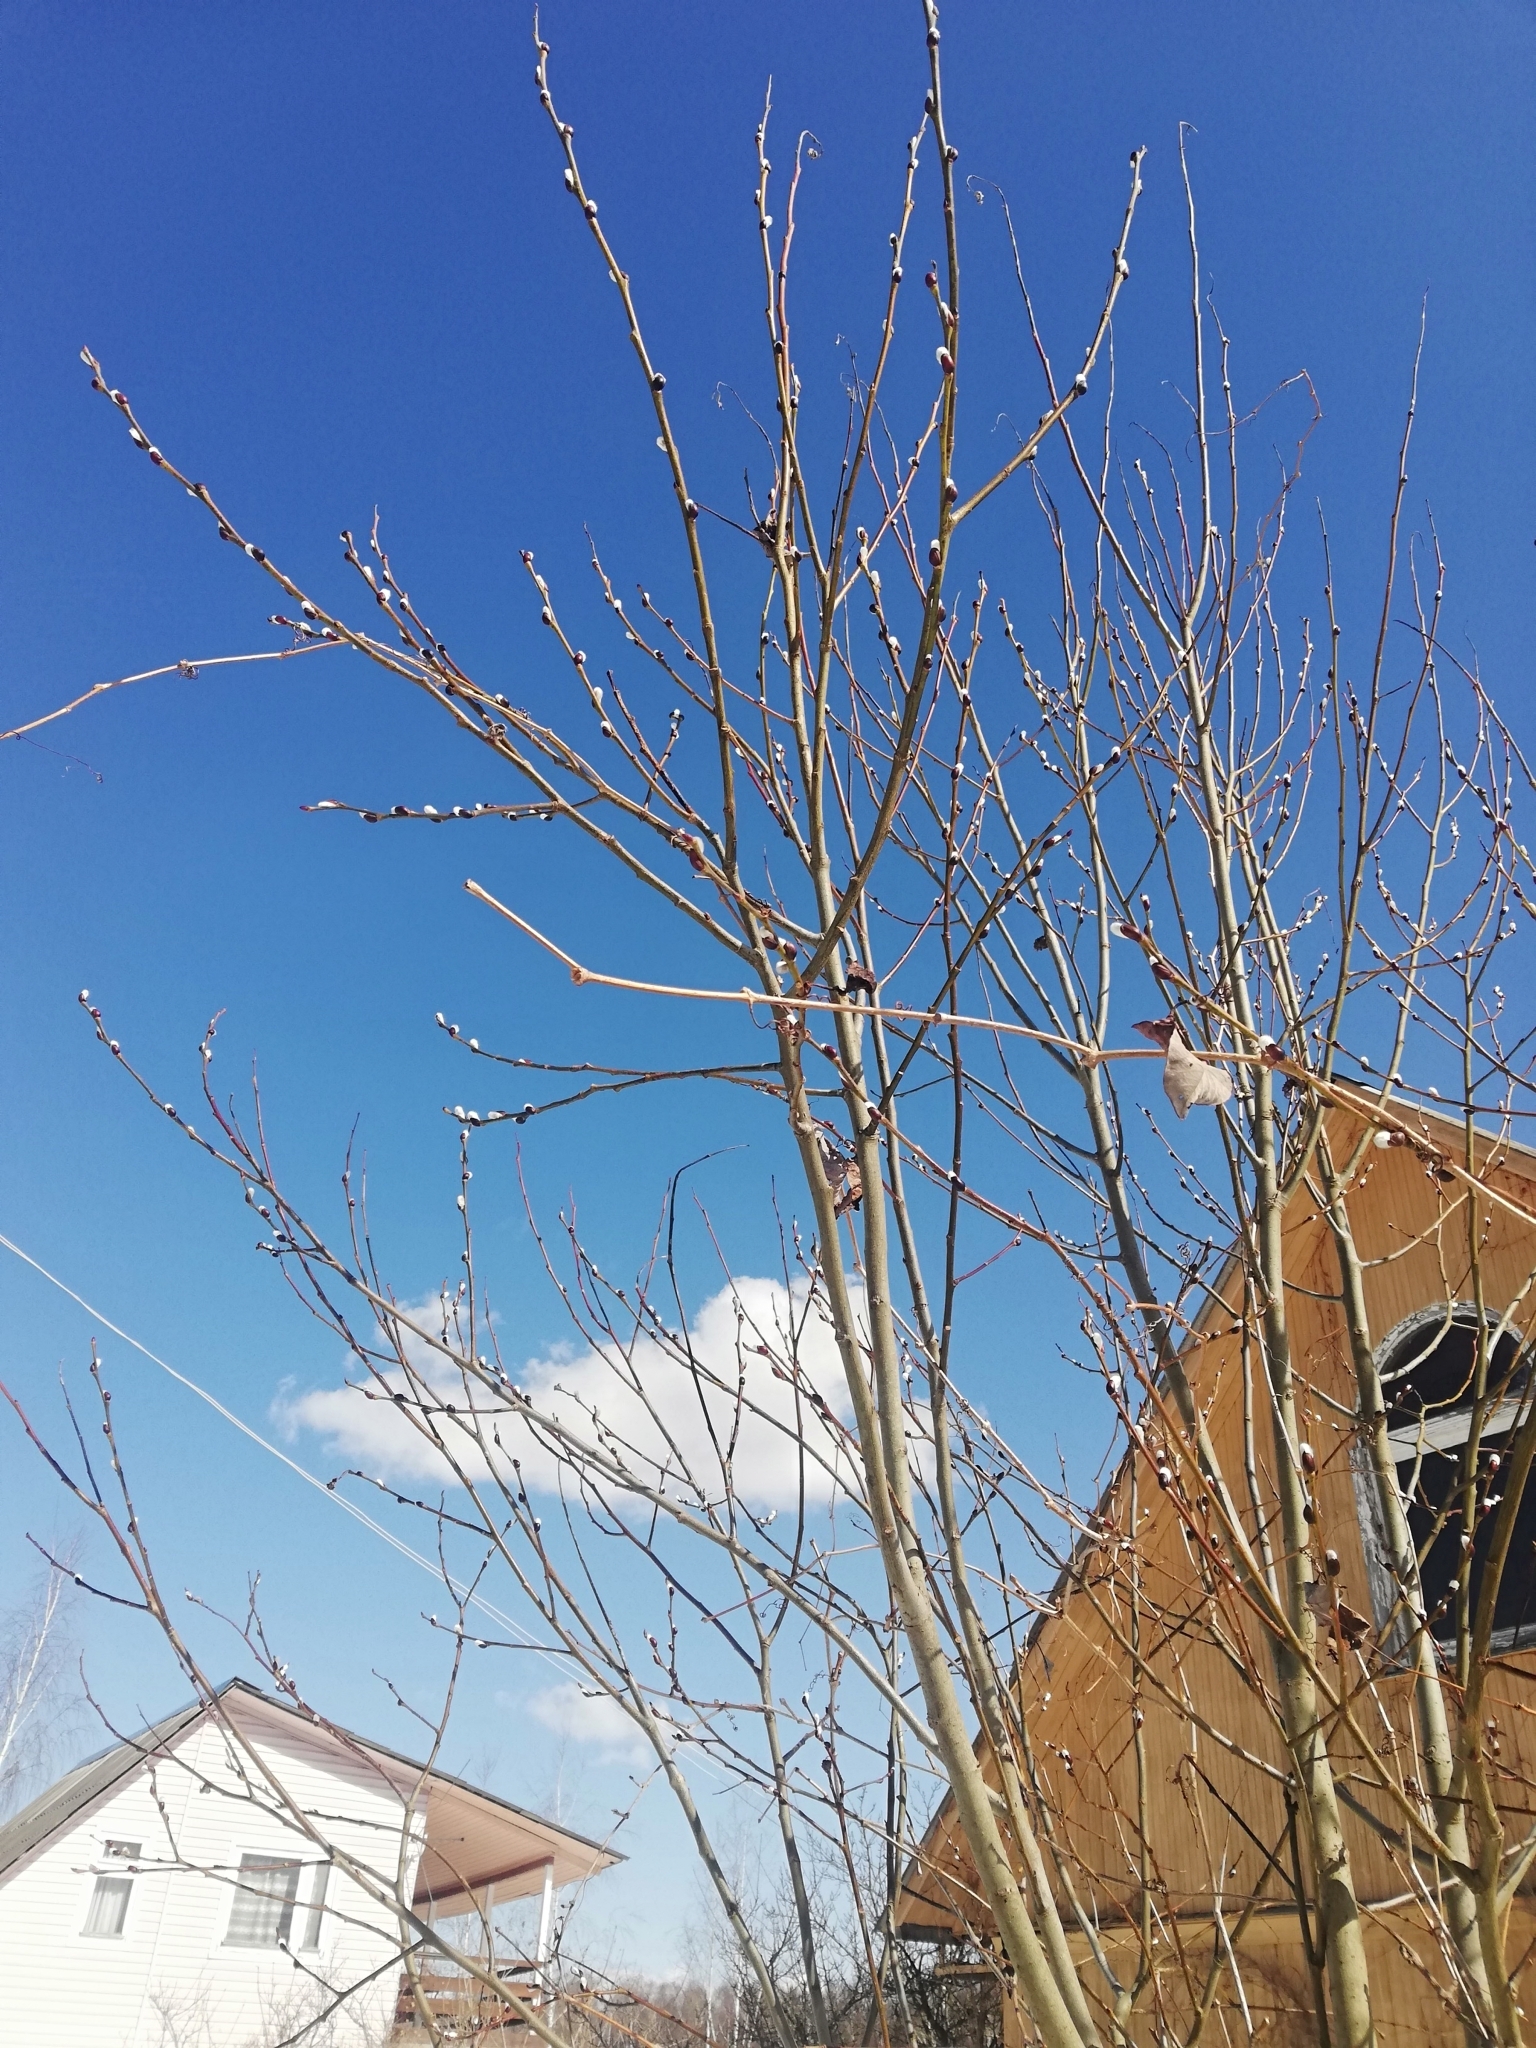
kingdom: Plantae
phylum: Tracheophyta
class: Magnoliopsida
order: Malpighiales
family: Salicaceae
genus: Salix
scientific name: Salix caprea
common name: Goat willow
